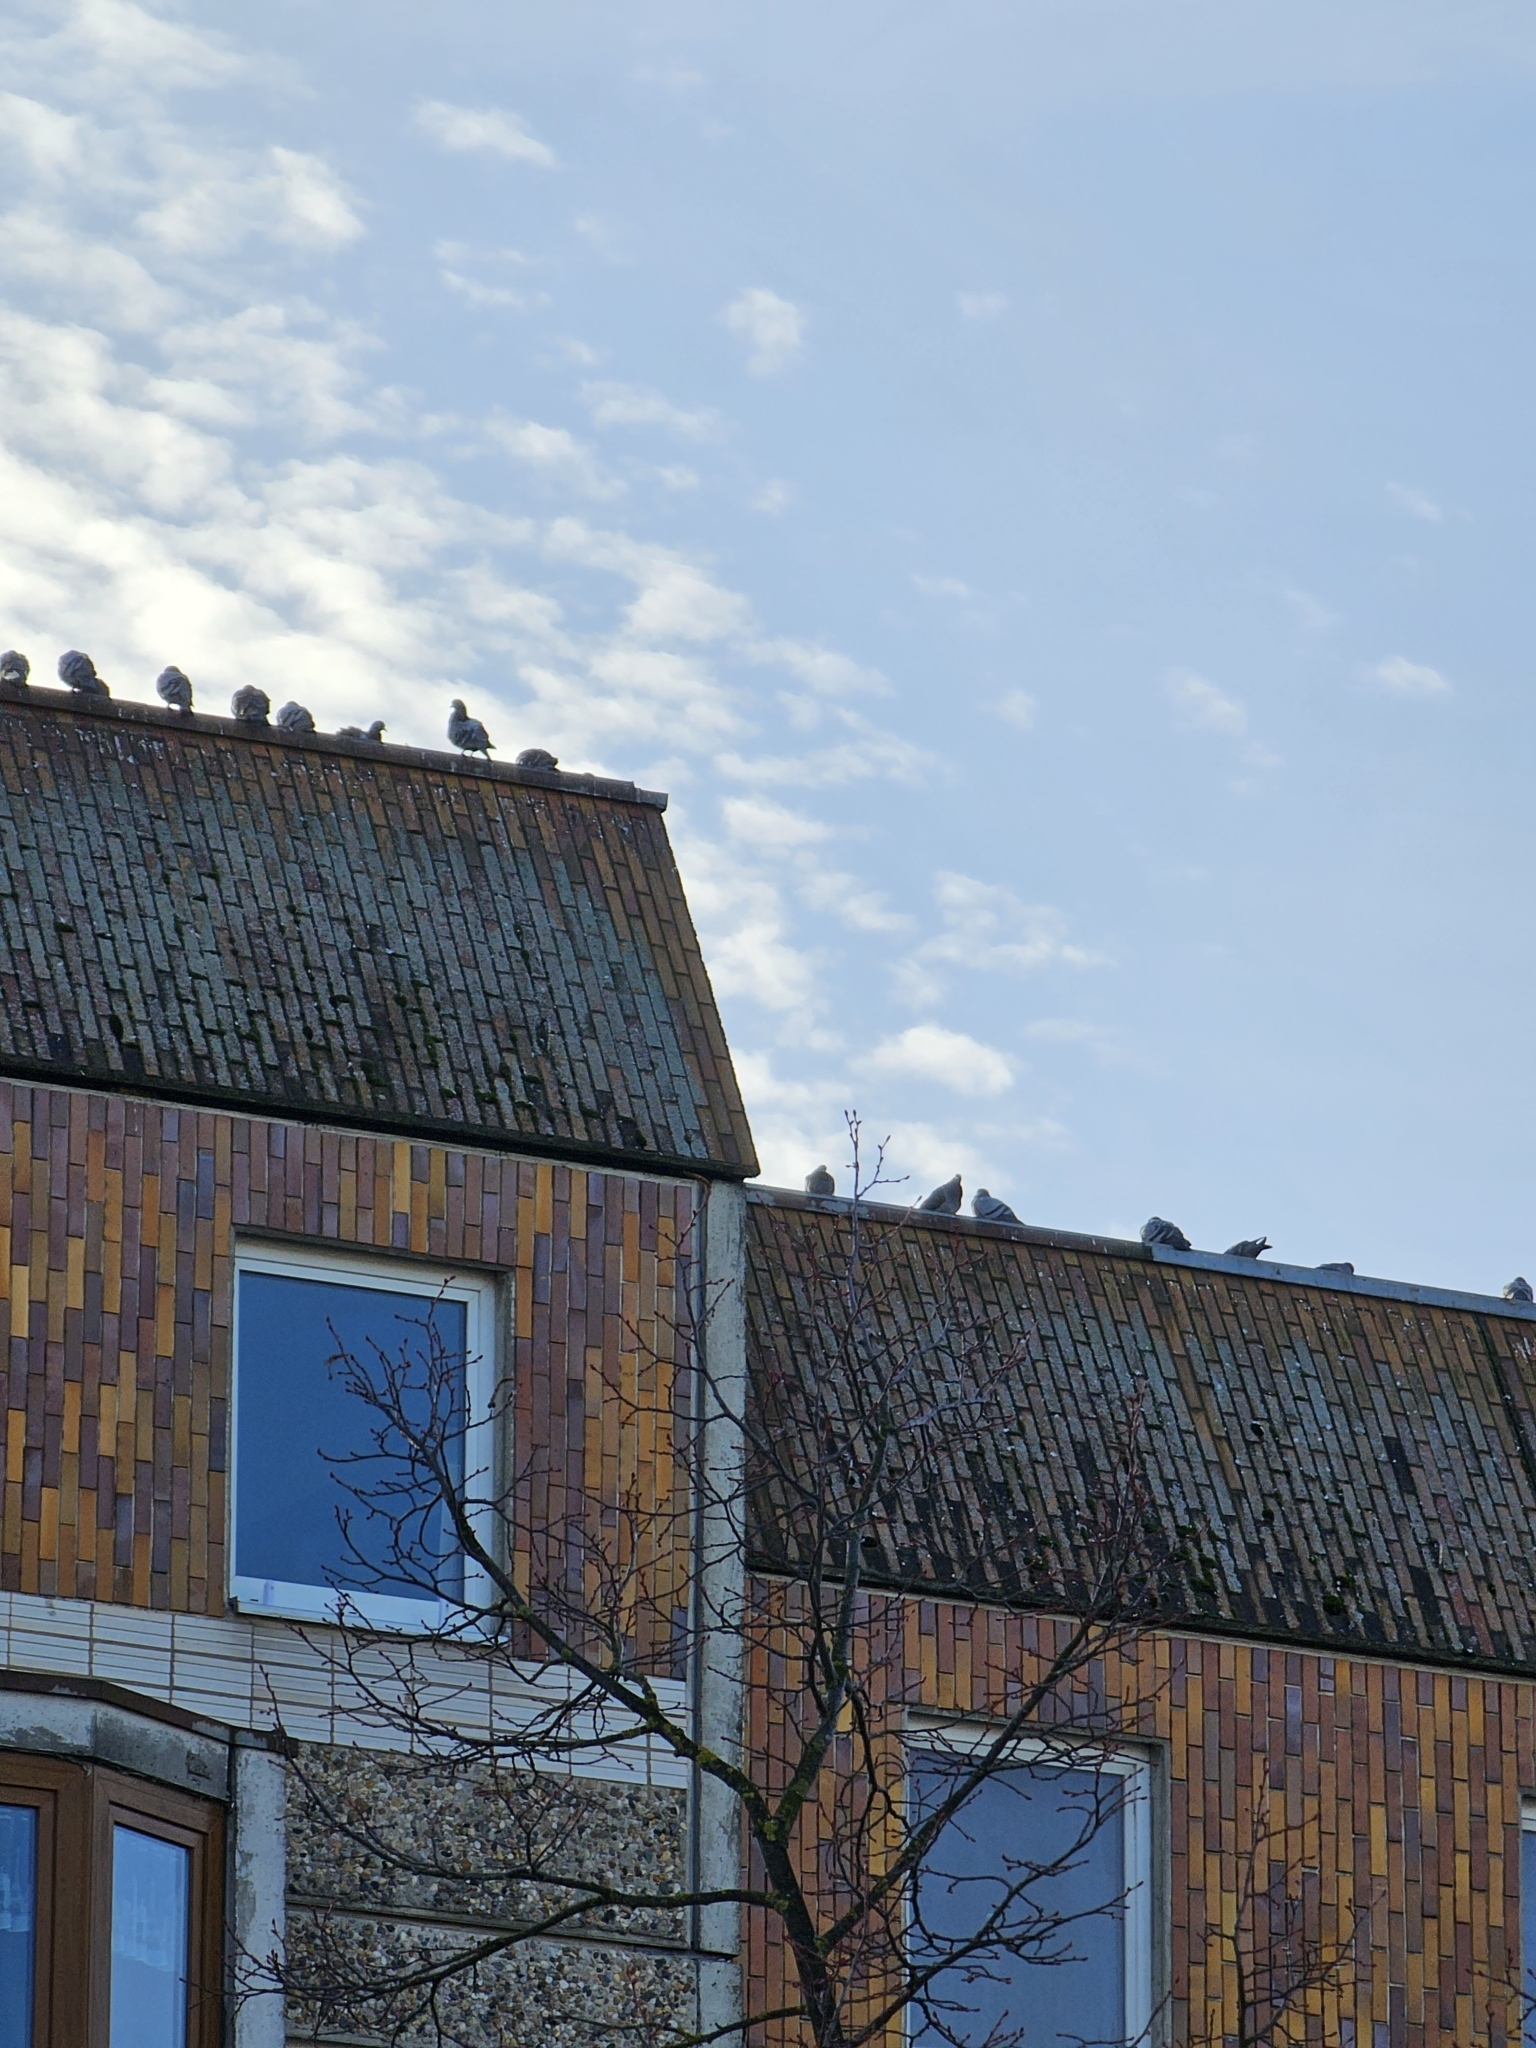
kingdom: Animalia
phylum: Chordata
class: Aves
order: Columbiformes
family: Columbidae
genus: Columba
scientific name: Columba livia
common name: Rock pigeon
